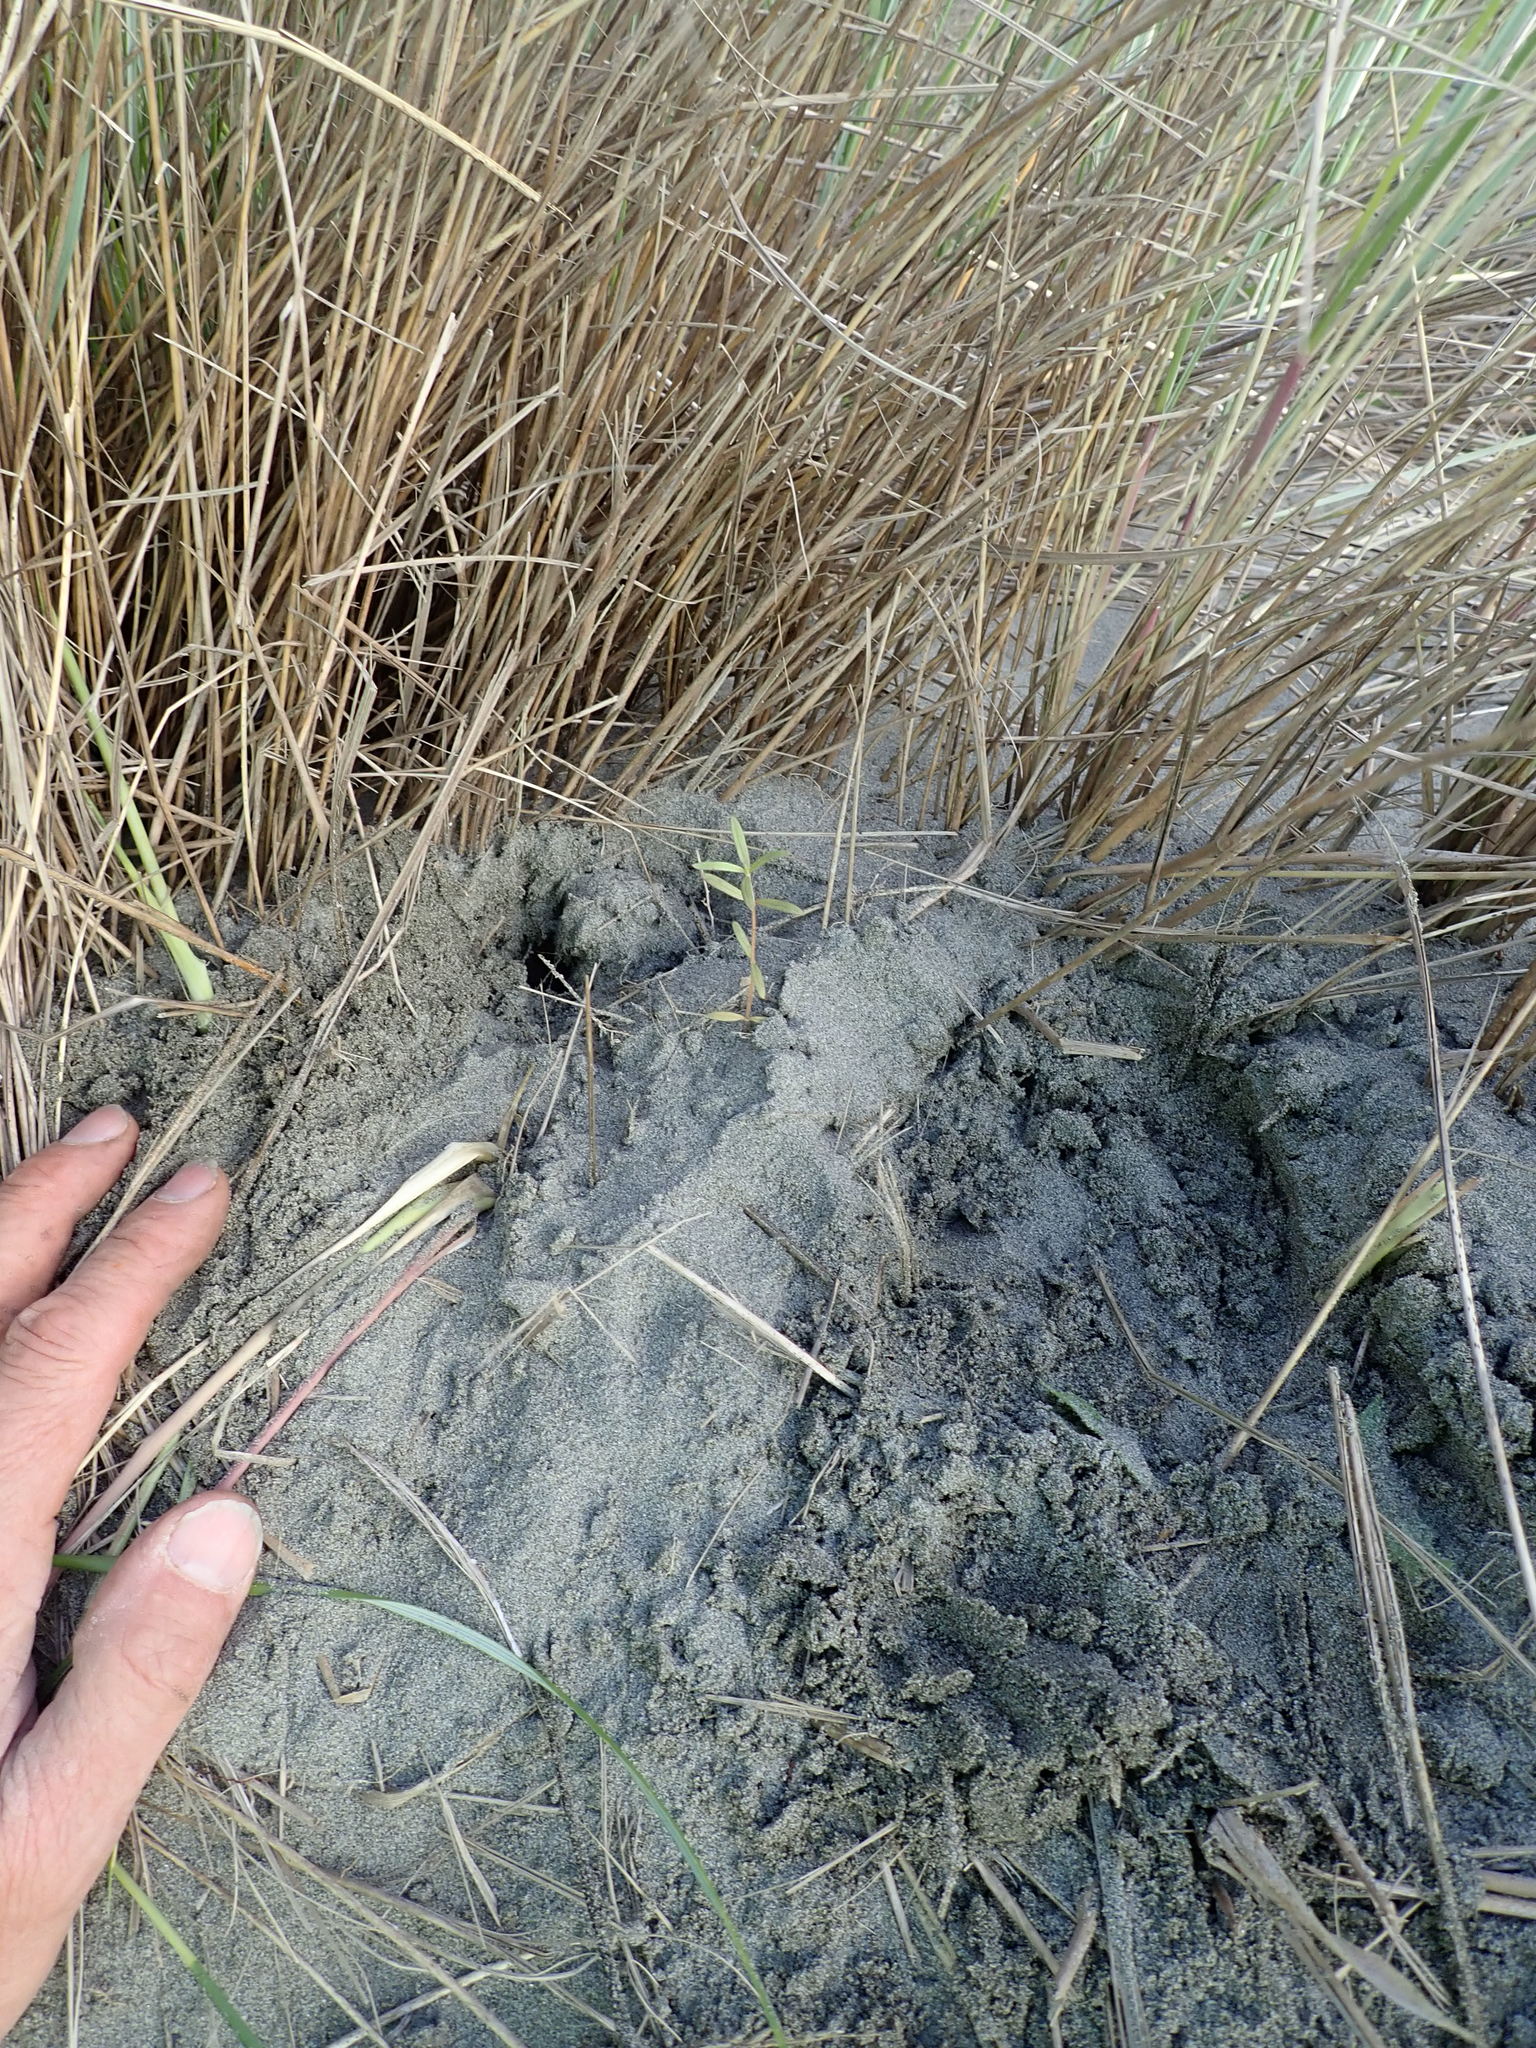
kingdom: Plantae
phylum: Tracheophyta
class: Magnoliopsida
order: Gentianales
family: Rubiaceae
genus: Coprosma
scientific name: Coprosma acerosa
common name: Sand coprosma
